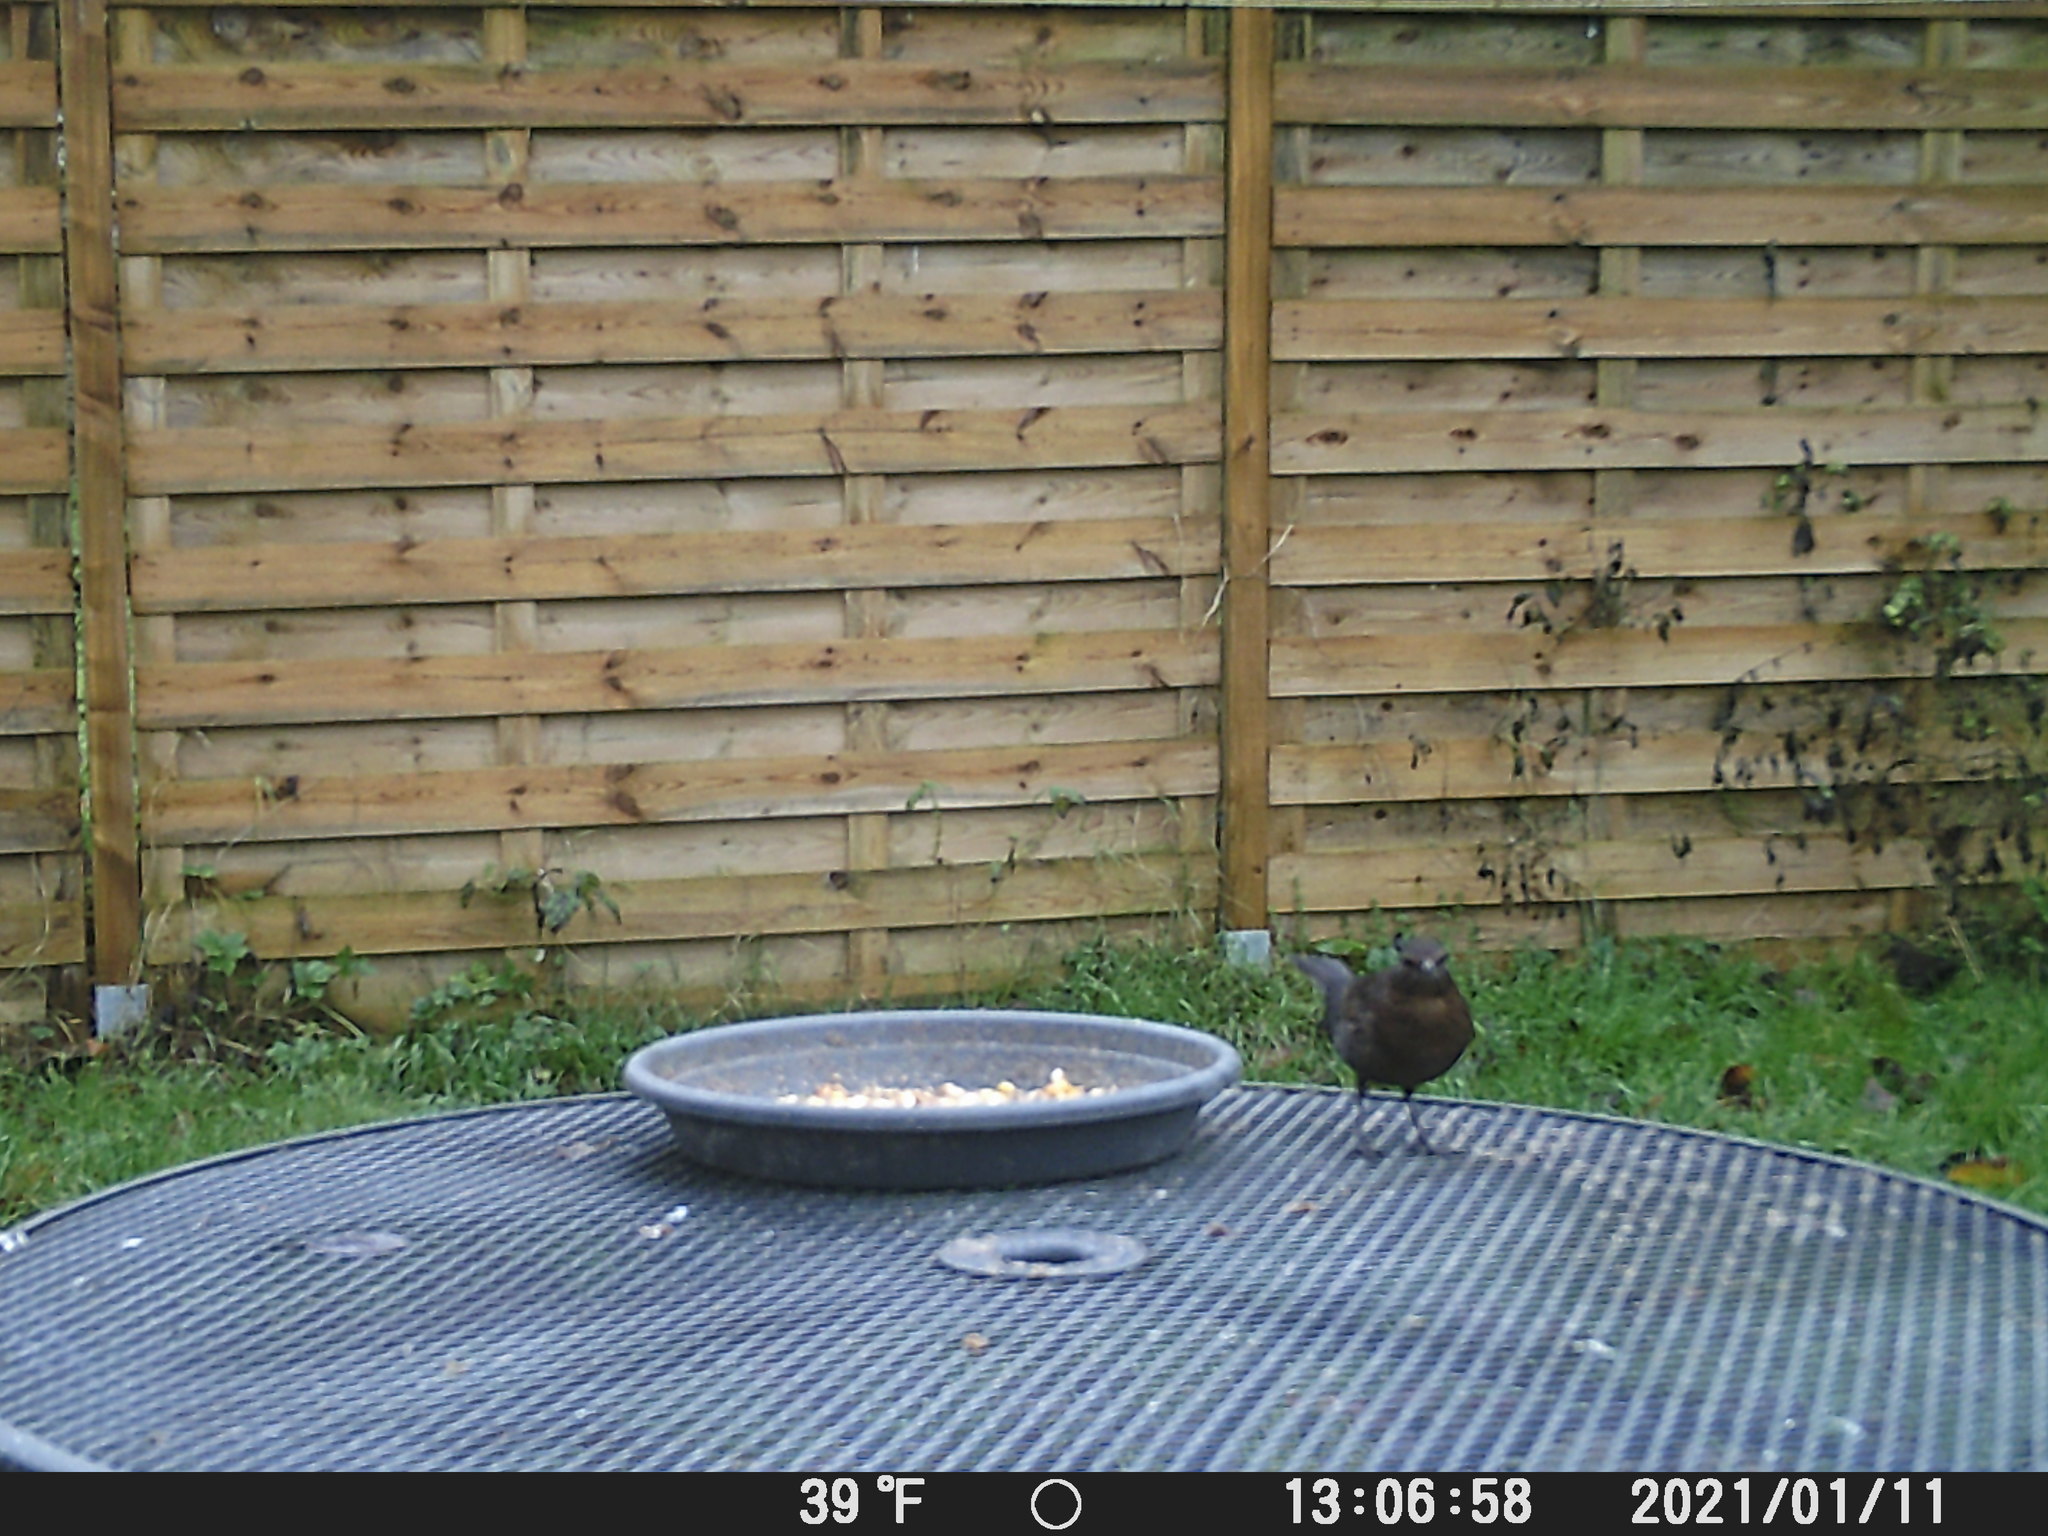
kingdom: Animalia
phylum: Chordata
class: Aves
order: Passeriformes
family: Turdidae
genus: Turdus
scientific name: Turdus merula
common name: Common blackbird
